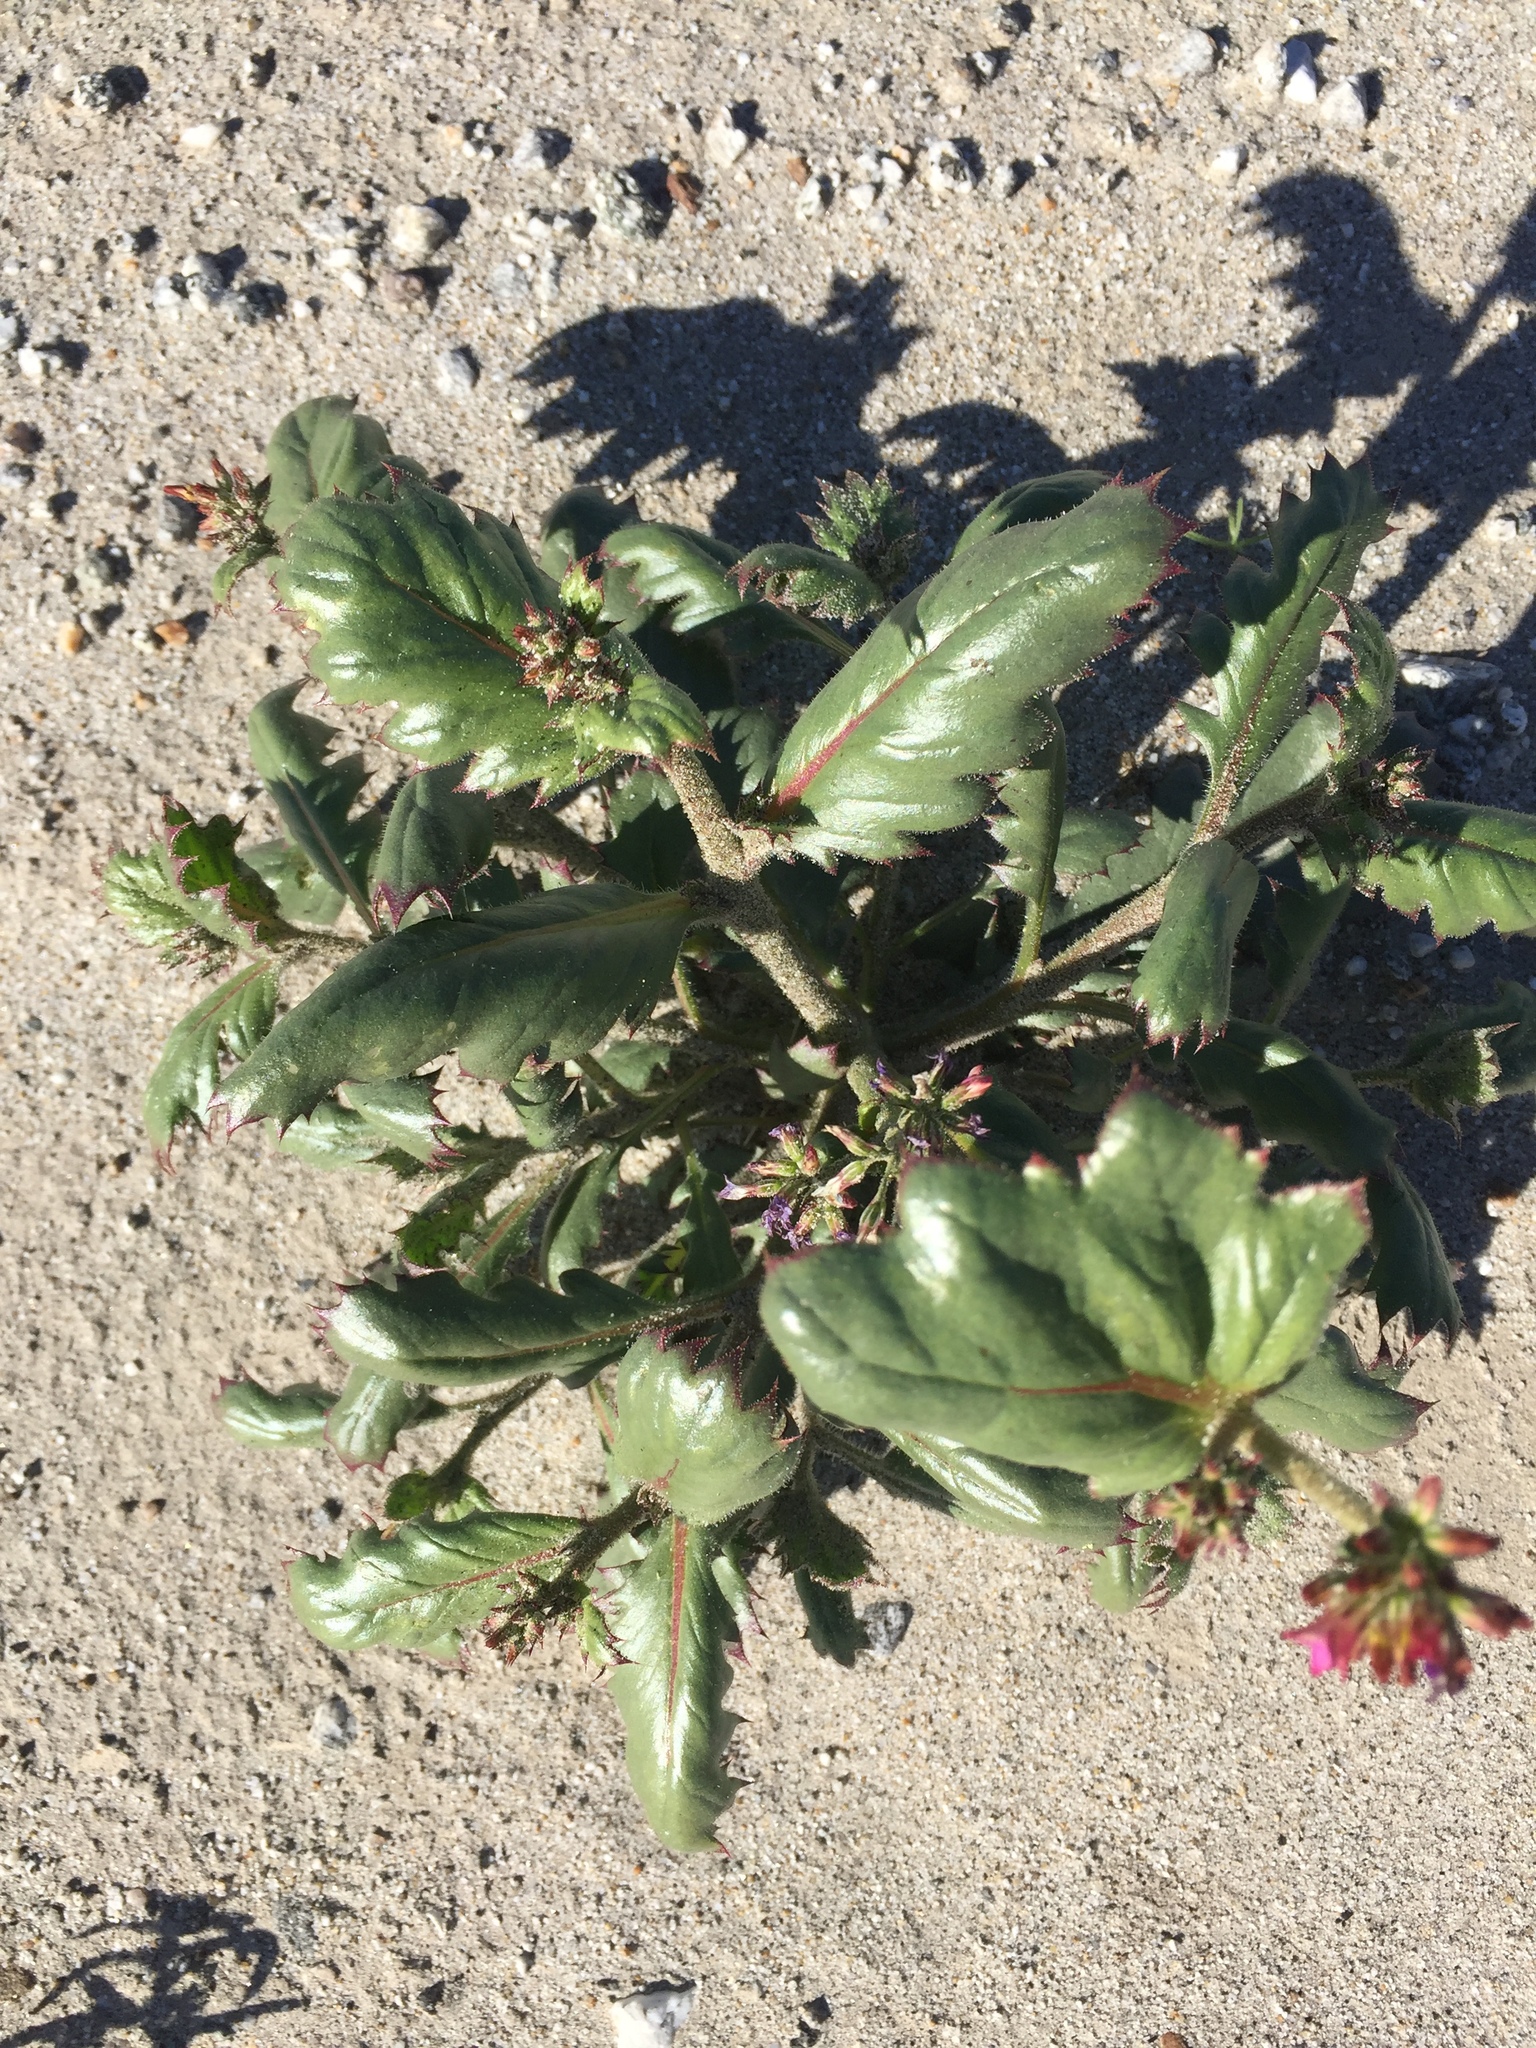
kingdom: Plantae
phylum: Tracheophyta
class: Magnoliopsida
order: Ericales
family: Polemoniaceae
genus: Aliciella
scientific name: Aliciella latifolia
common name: Broad-leaf gilia
